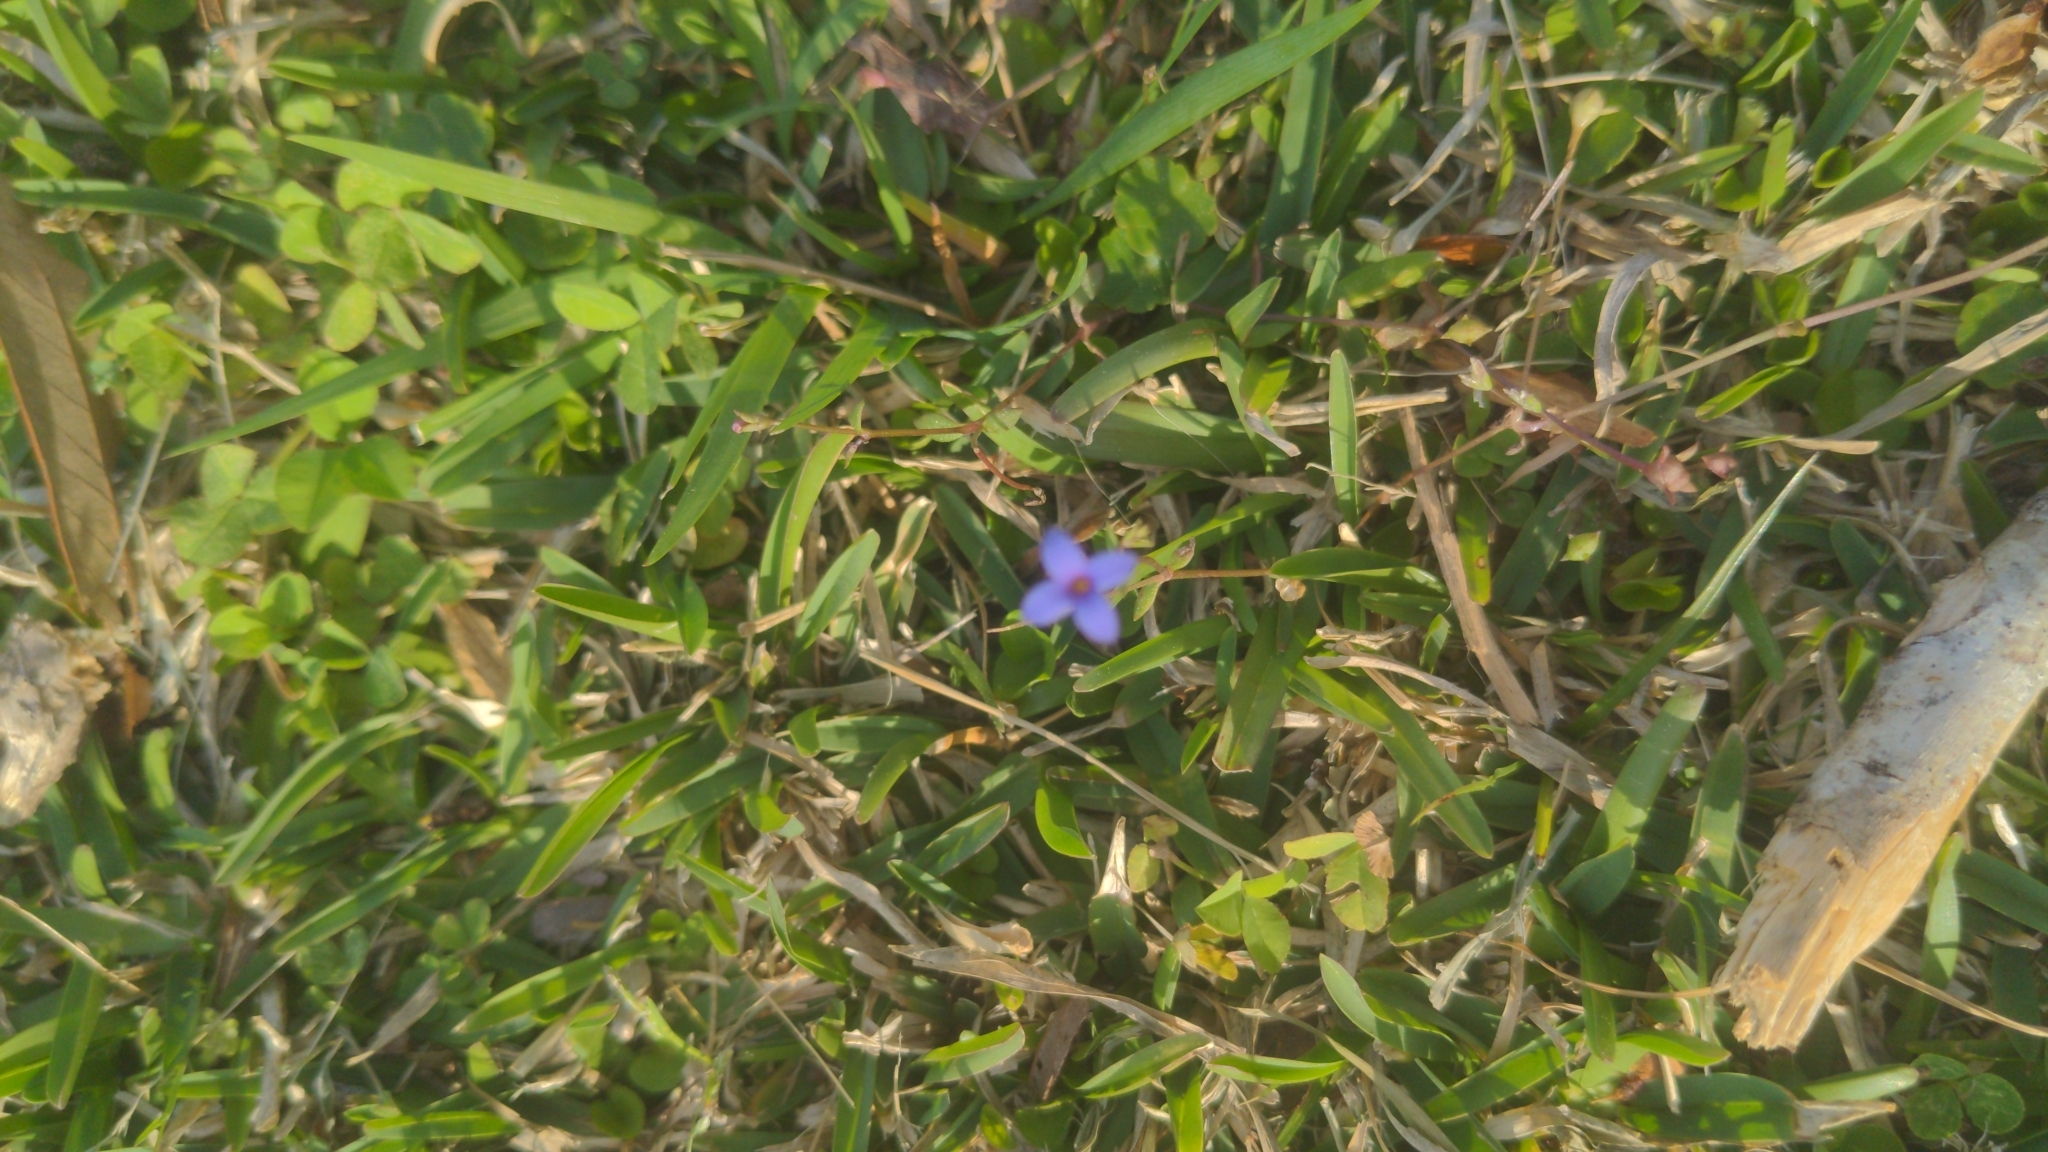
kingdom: Plantae
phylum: Tracheophyta
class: Magnoliopsida
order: Gentianales
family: Rubiaceae
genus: Houstonia
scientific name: Houstonia pusilla
